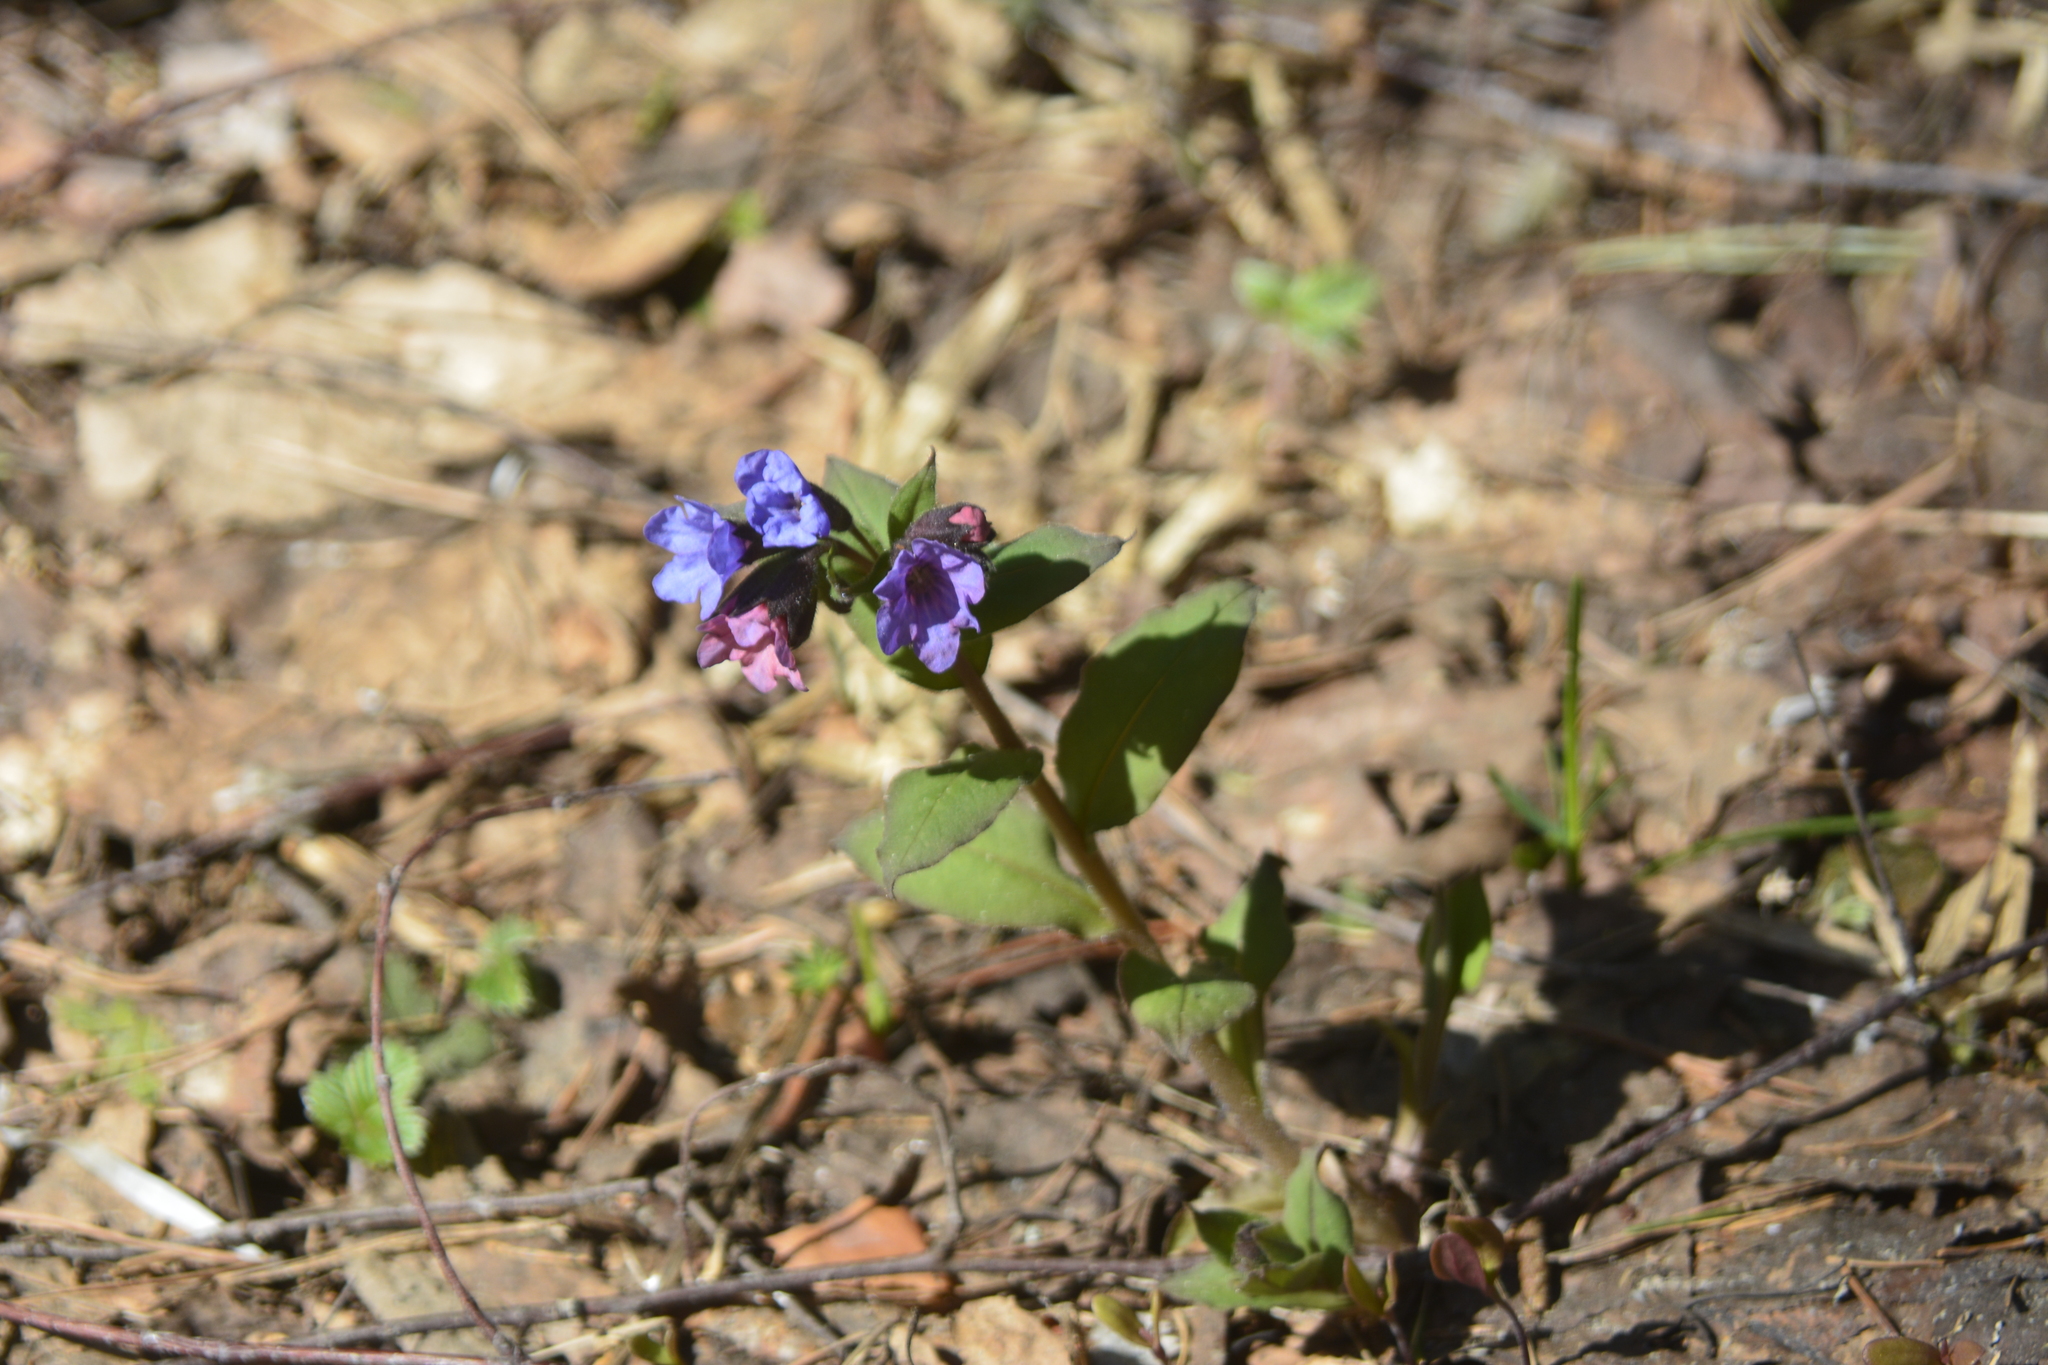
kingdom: Plantae
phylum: Tracheophyta
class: Magnoliopsida
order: Boraginales
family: Boraginaceae
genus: Pulmonaria
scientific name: Pulmonaria obscura
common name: Suffolk lungwort
